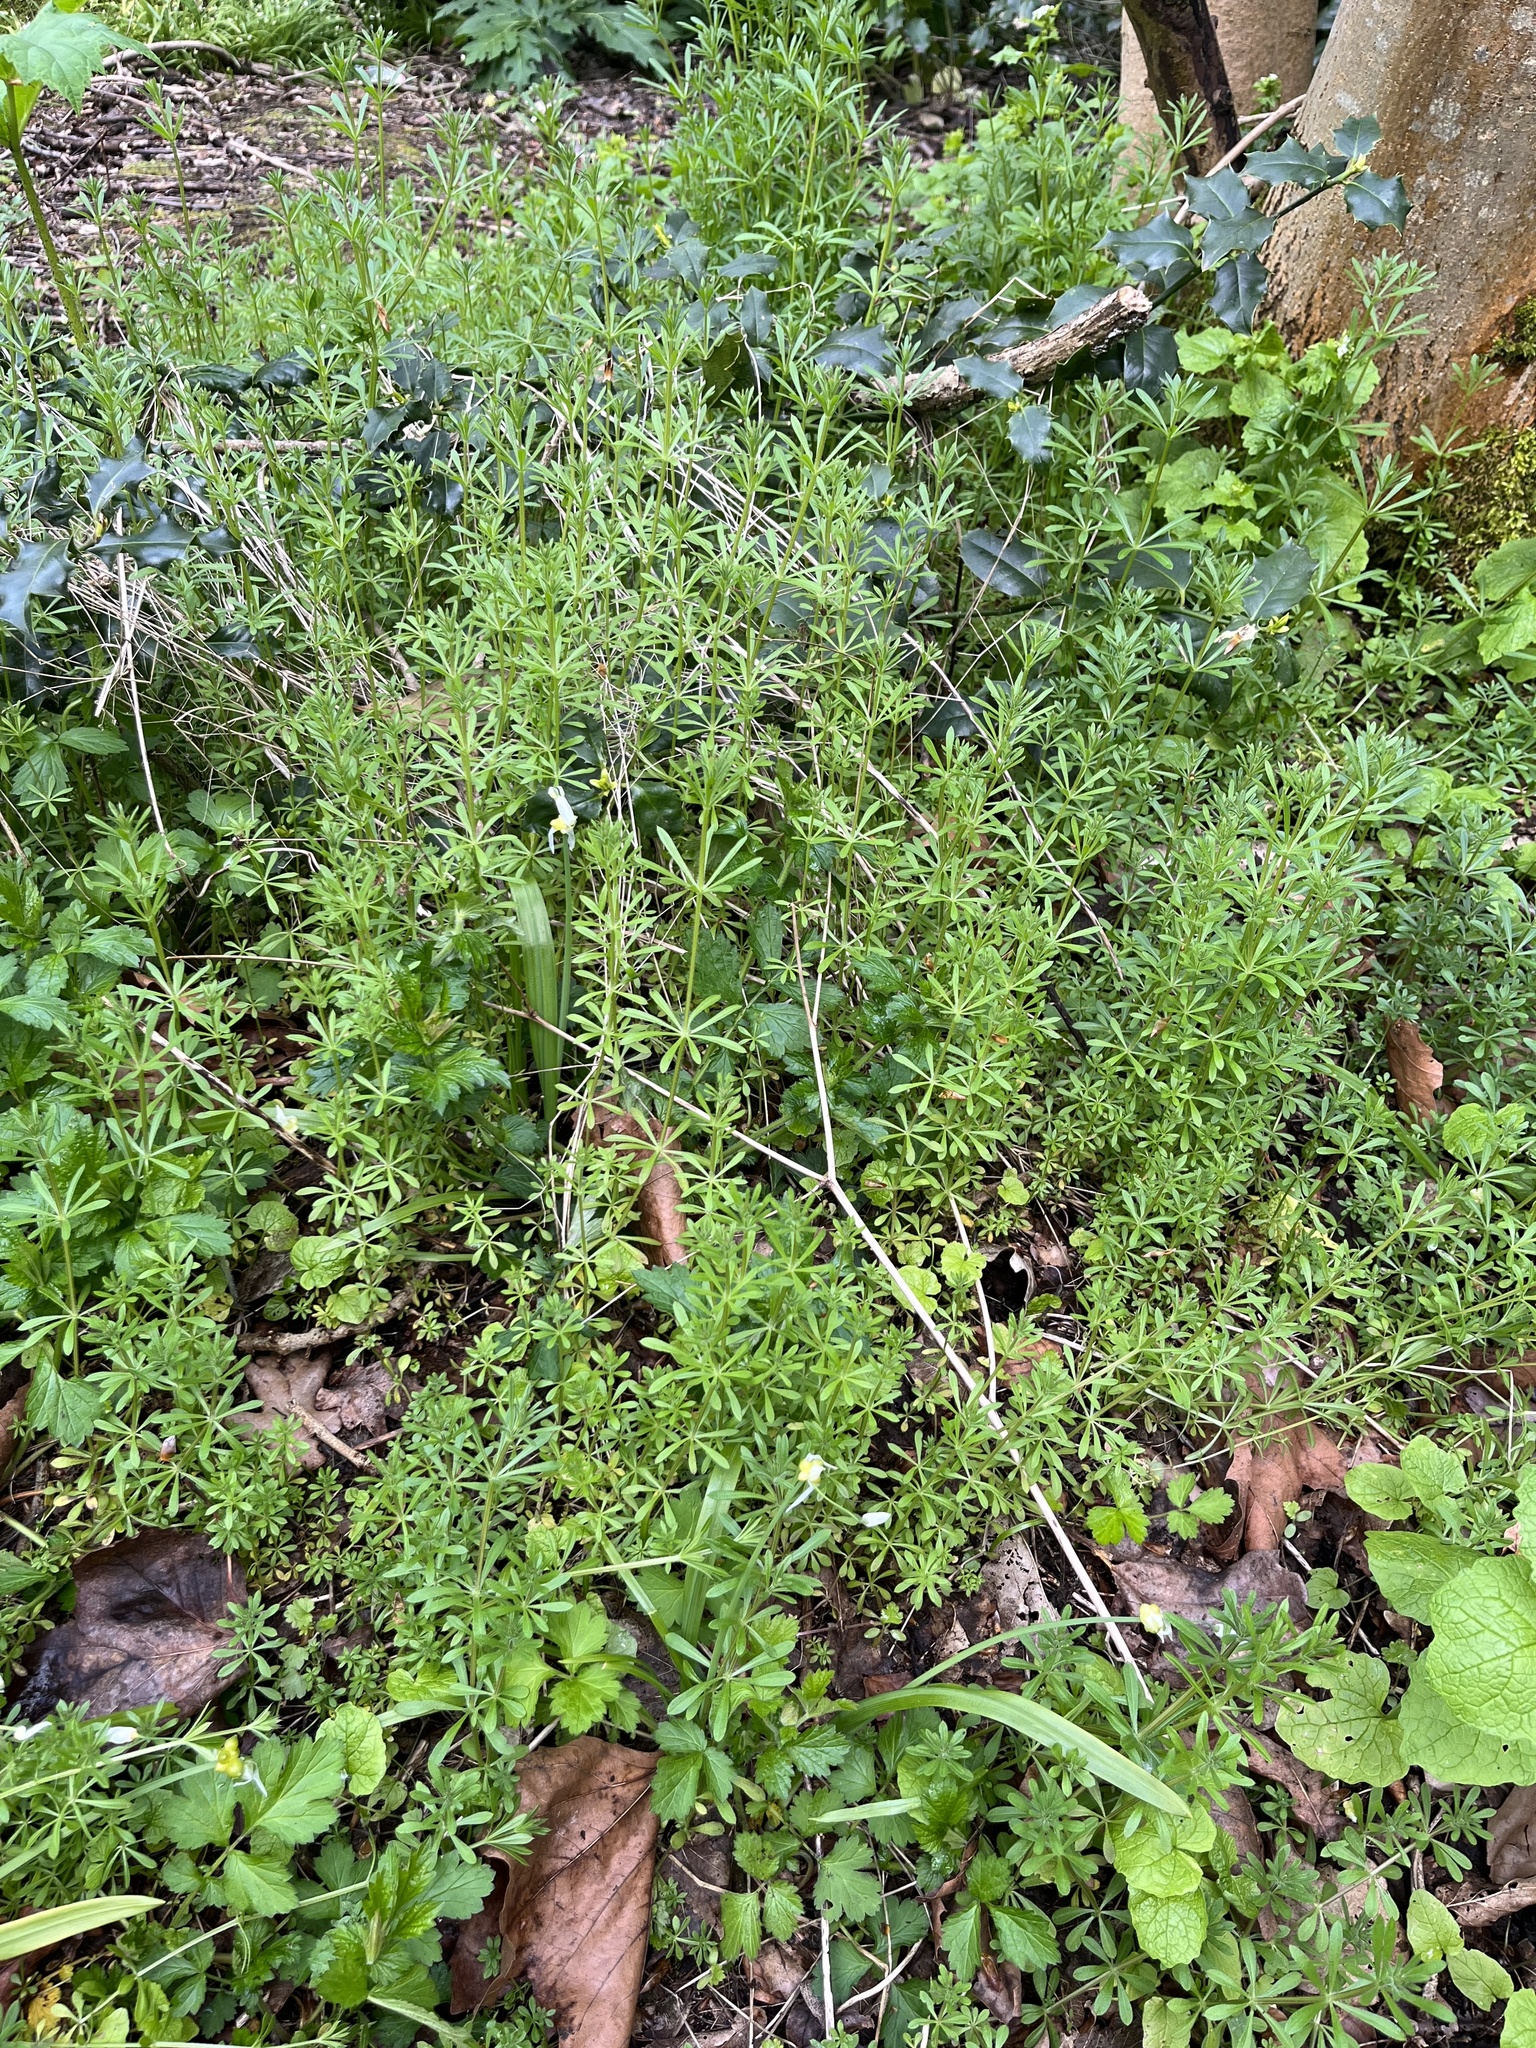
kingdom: Plantae
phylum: Tracheophyta
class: Magnoliopsida
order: Gentianales
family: Rubiaceae
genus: Galium
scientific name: Galium aparine
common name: Cleavers
